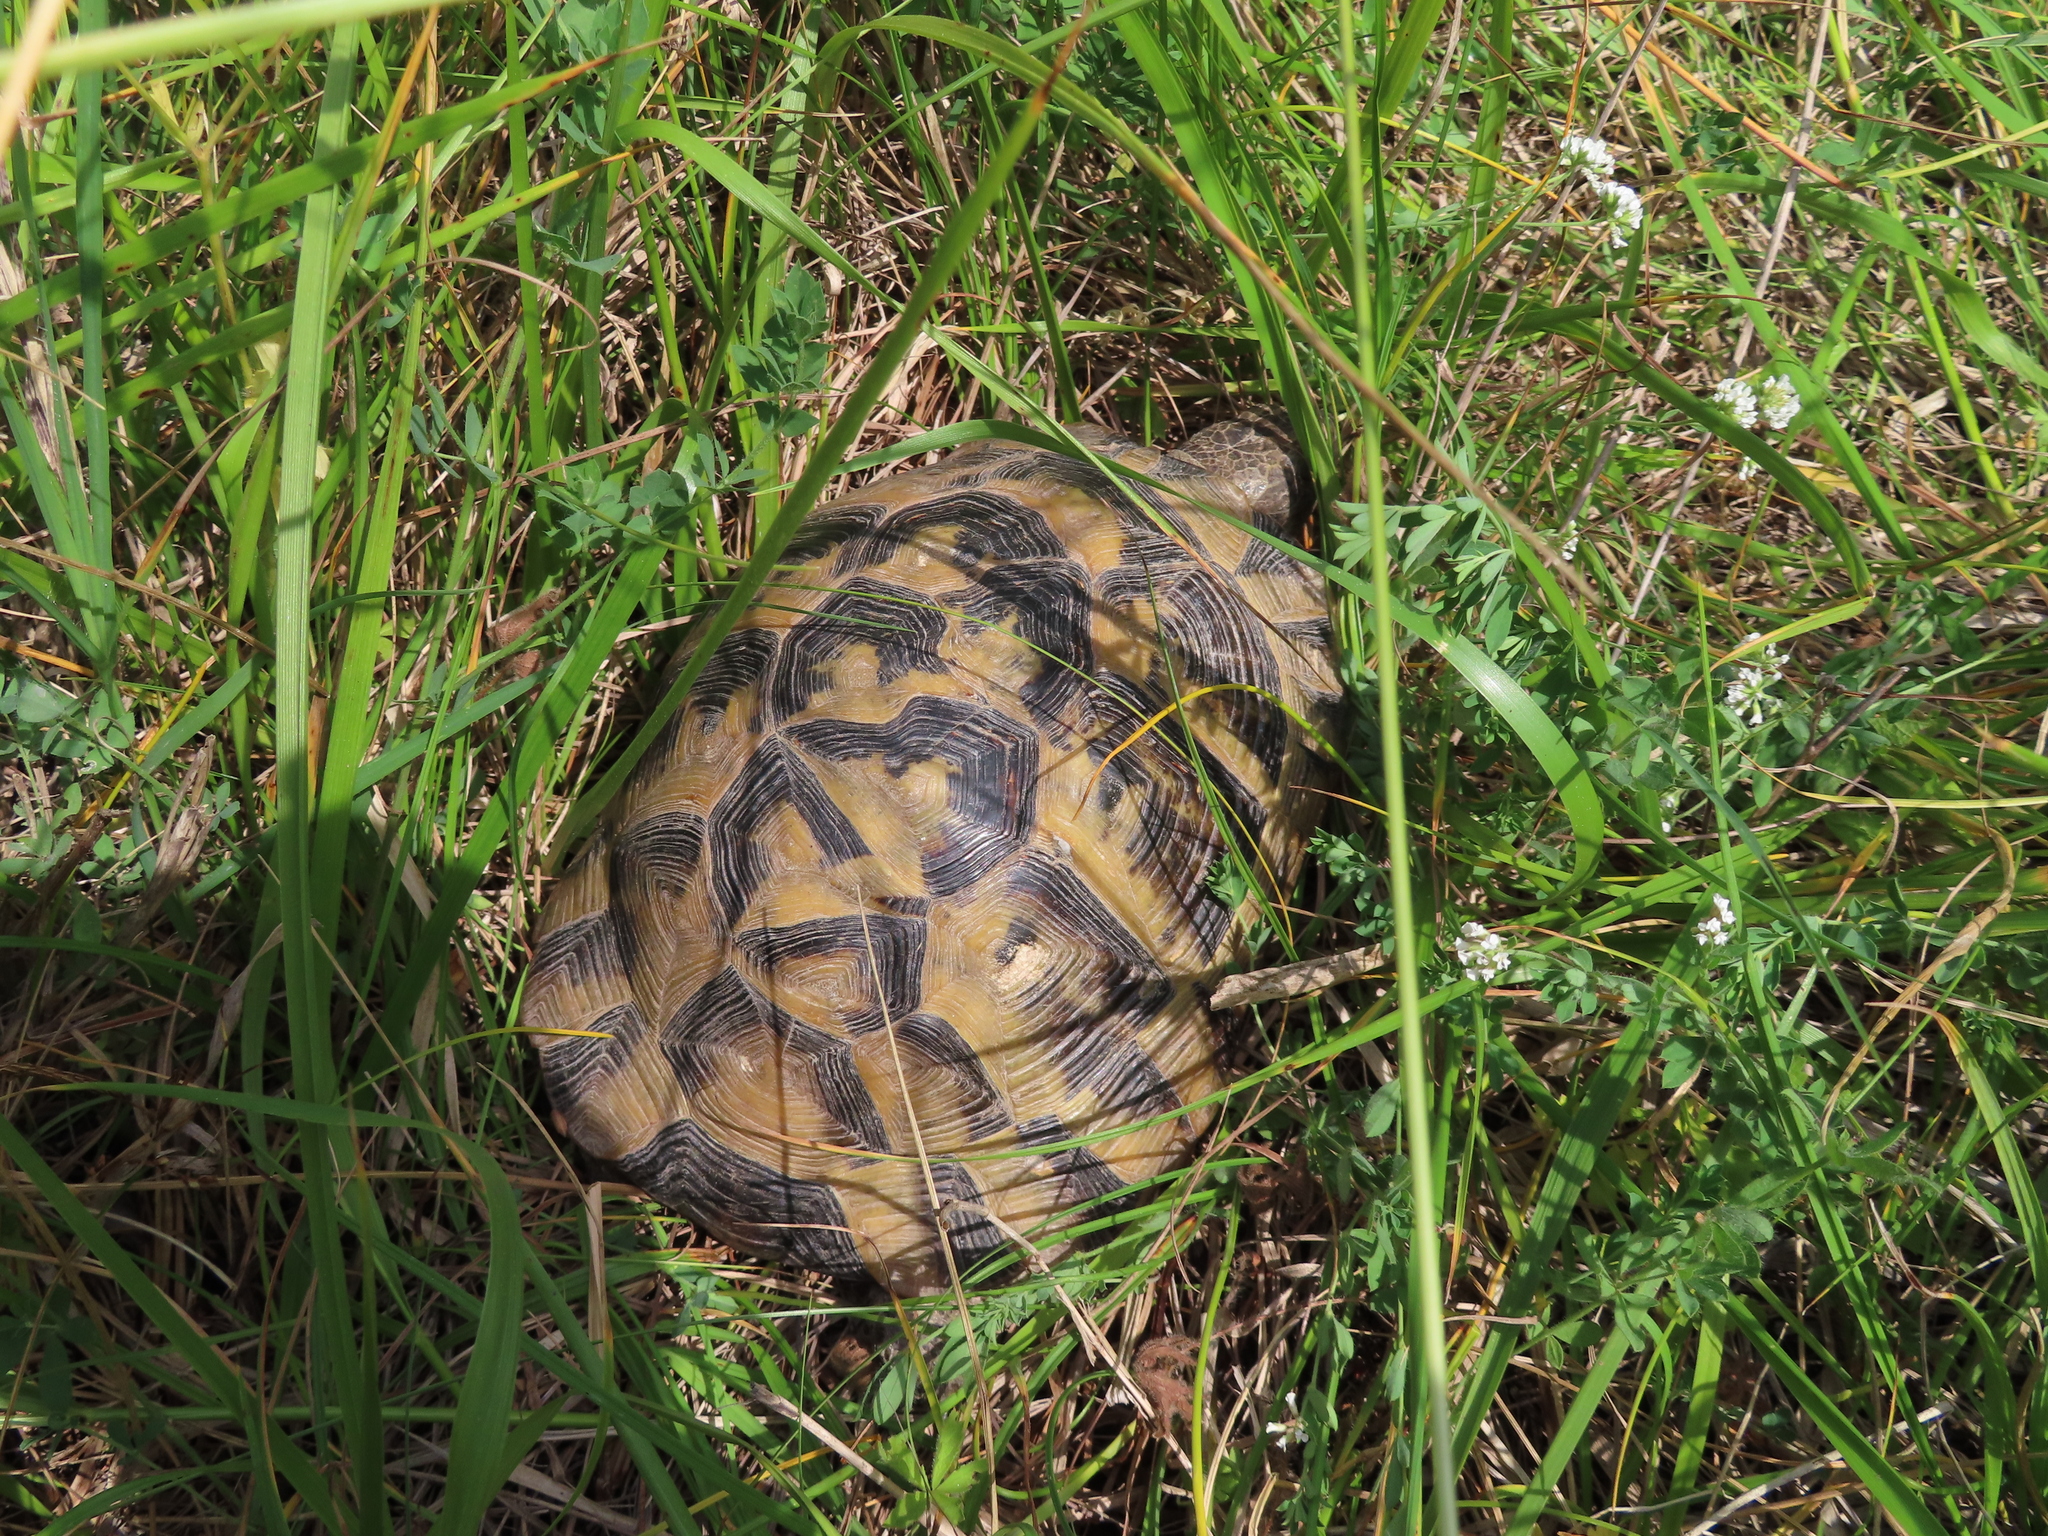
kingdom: Animalia
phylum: Chordata
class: Testudines
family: Testudinidae
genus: Testudo
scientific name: Testudo graeca
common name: Common tortoise
